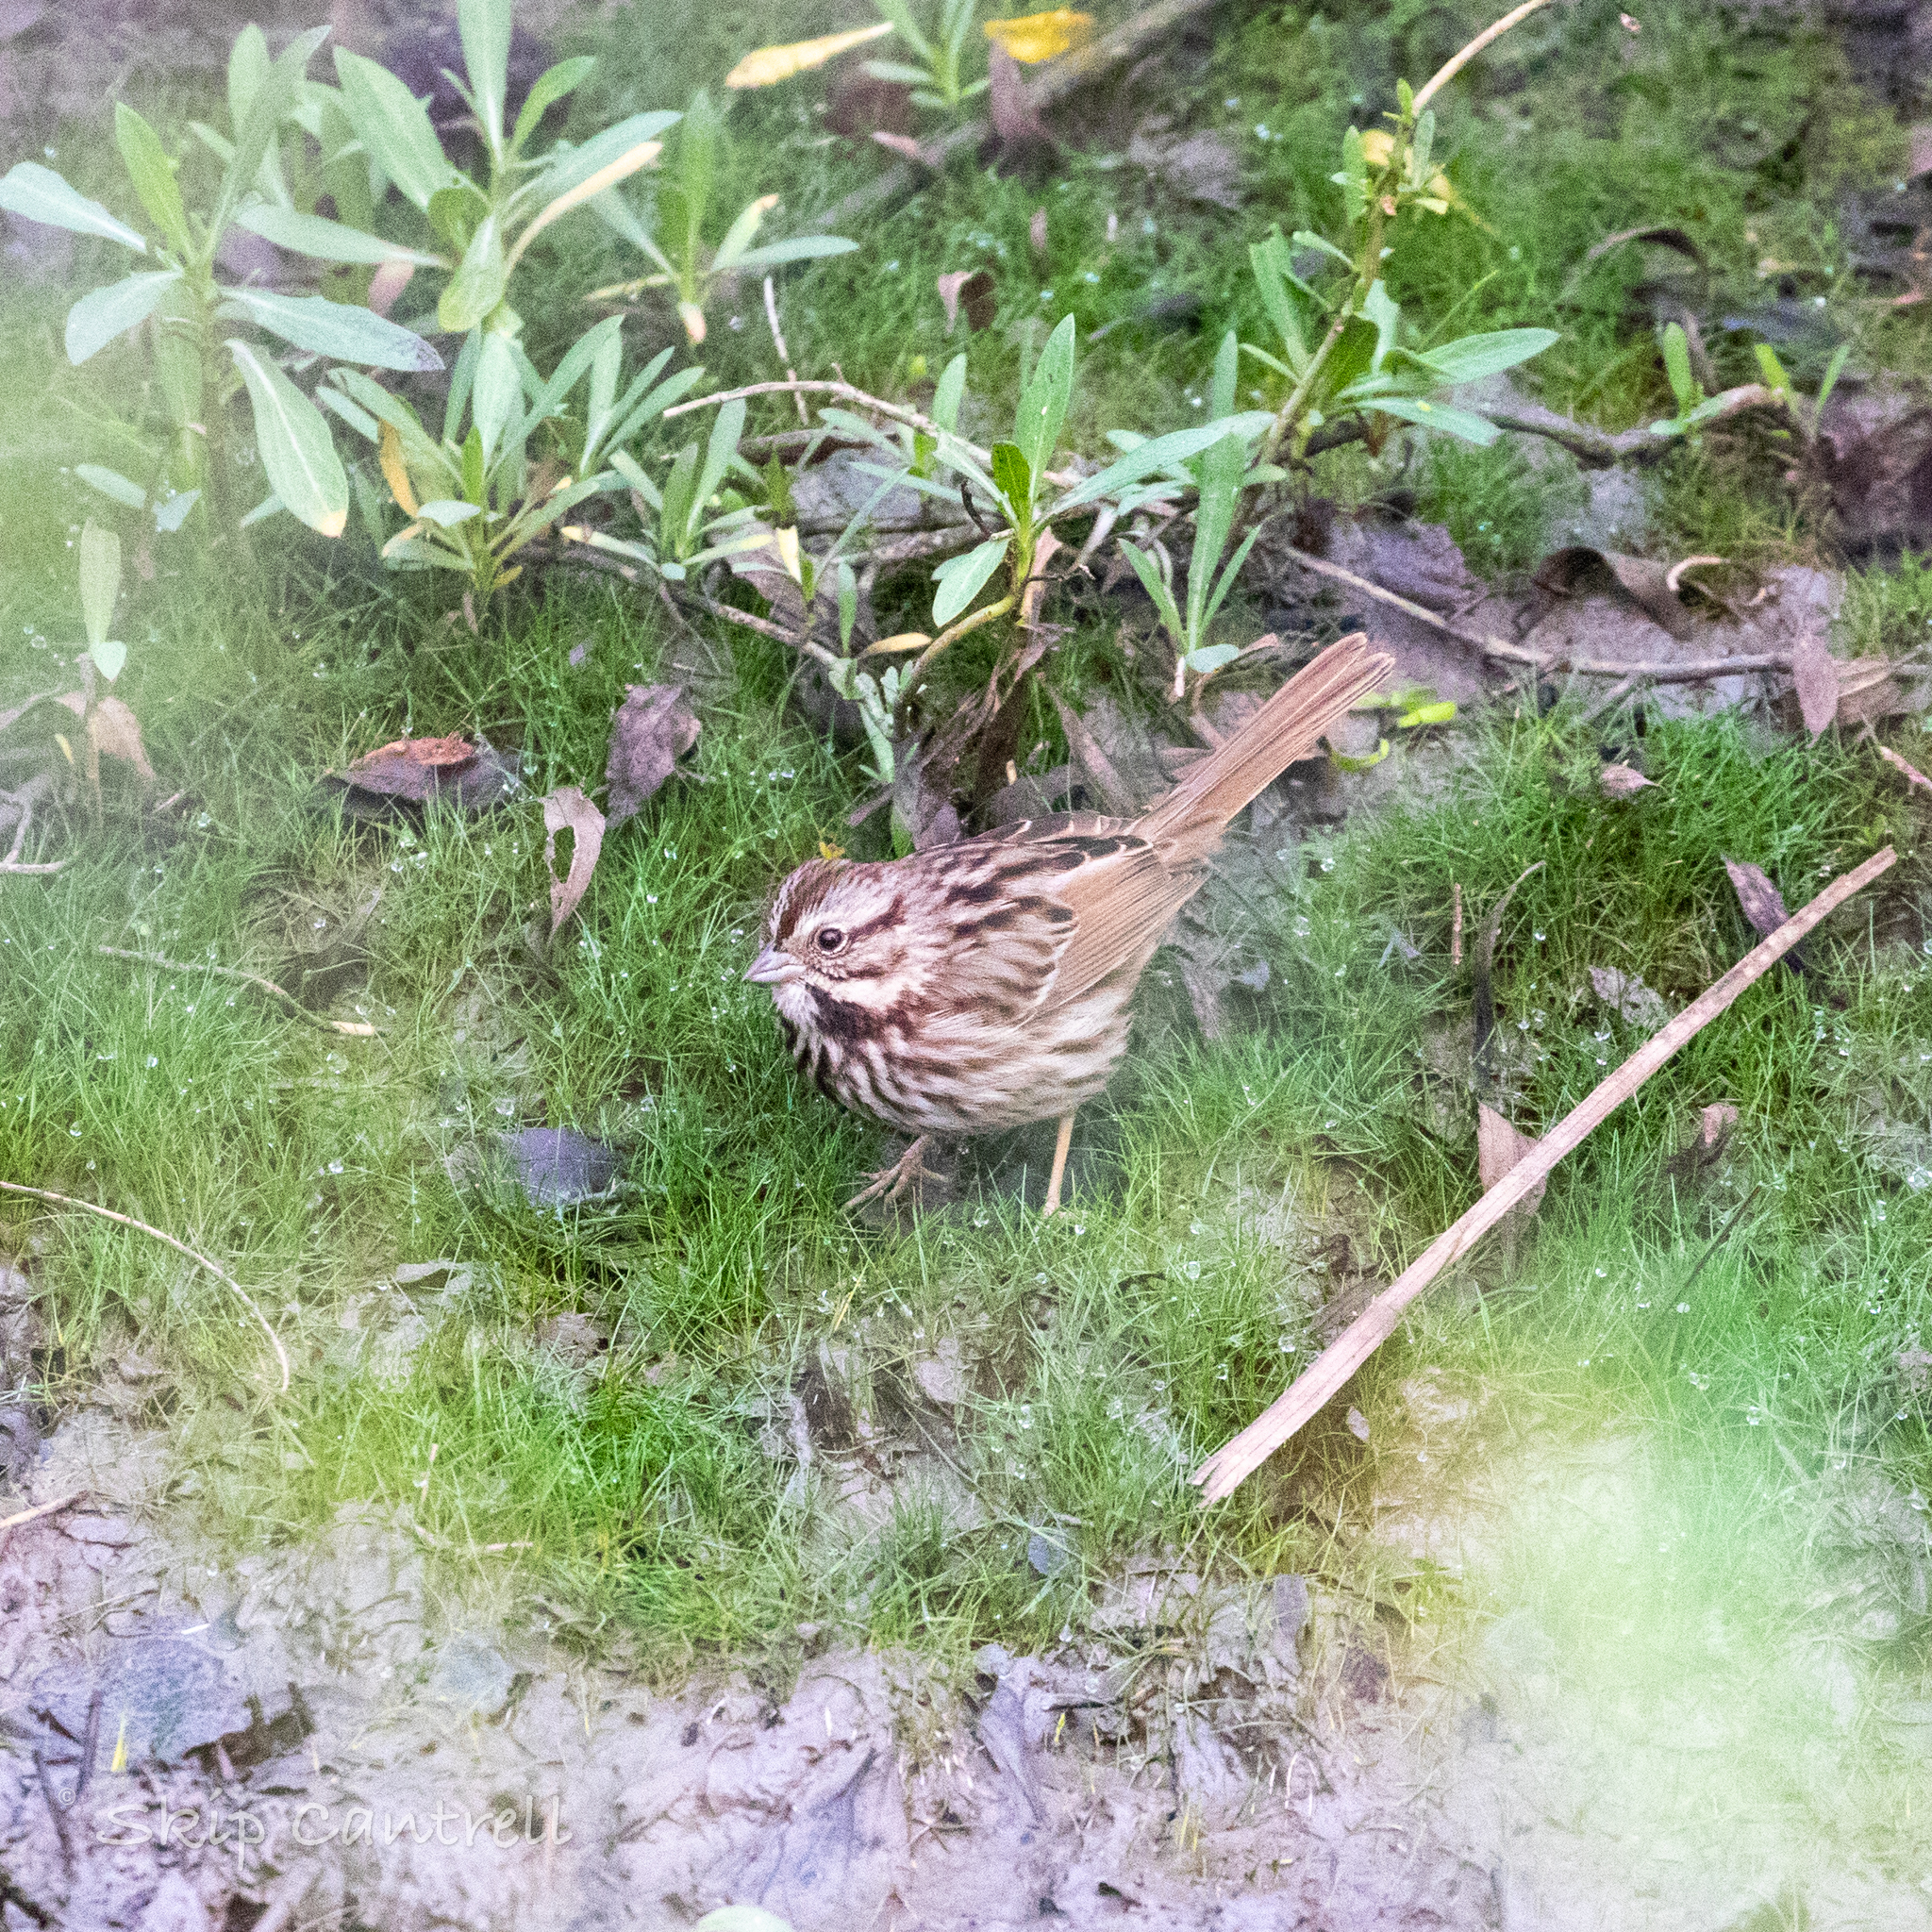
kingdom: Animalia
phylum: Chordata
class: Aves
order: Passeriformes
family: Passerellidae
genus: Melospiza
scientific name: Melospiza melodia
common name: Song sparrow
